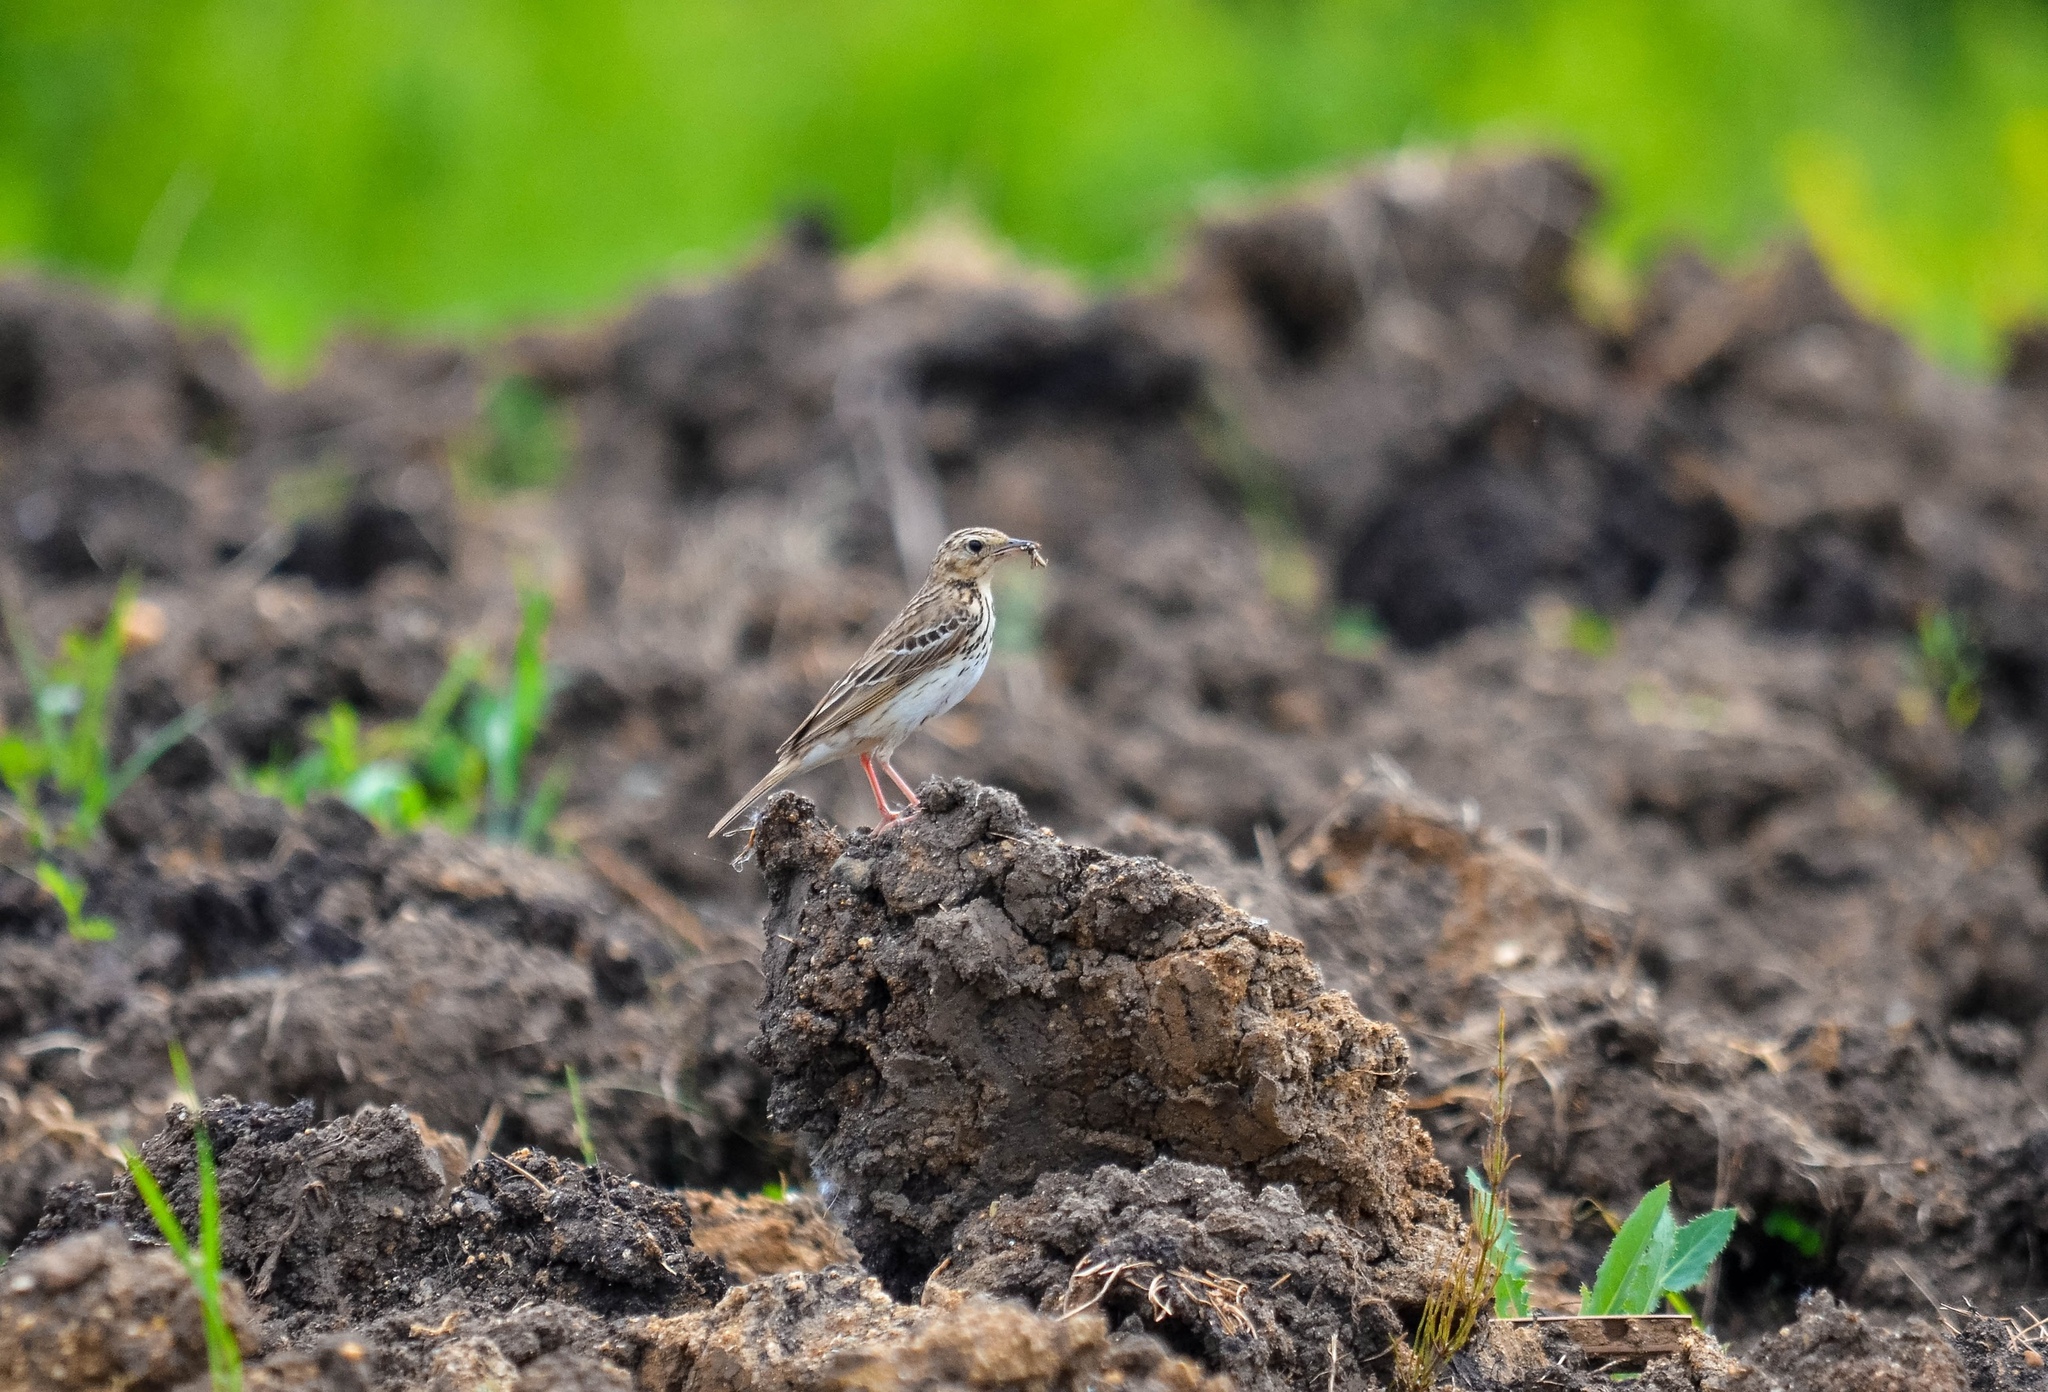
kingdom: Animalia
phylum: Chordata
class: Aves
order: Passeriformes
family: Motacillidae
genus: Anthus
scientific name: Anthus trivialis
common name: Tree pipit
